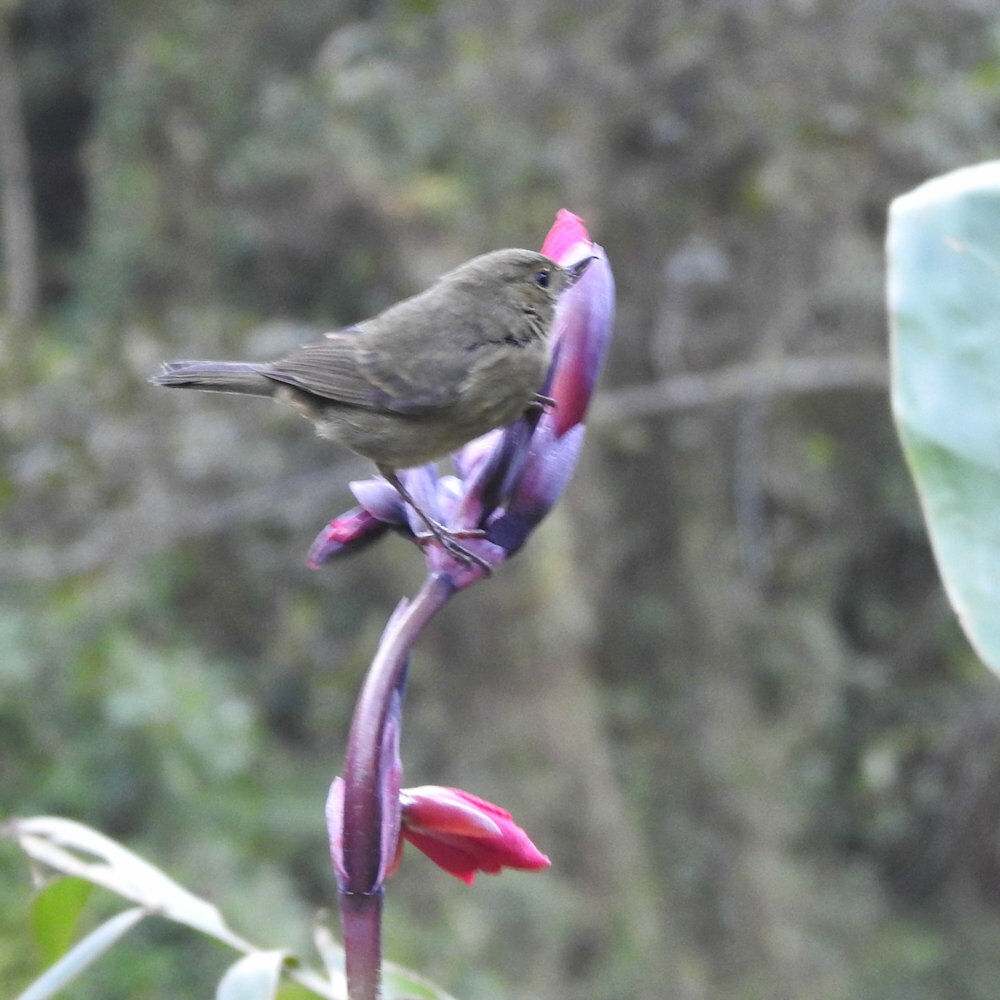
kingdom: Animalia
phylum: Chordata
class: Aves
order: Passeriformes
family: Thraupidae
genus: Diglossa
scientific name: Diglossa plumbea
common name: Slaty flowerpiercer
